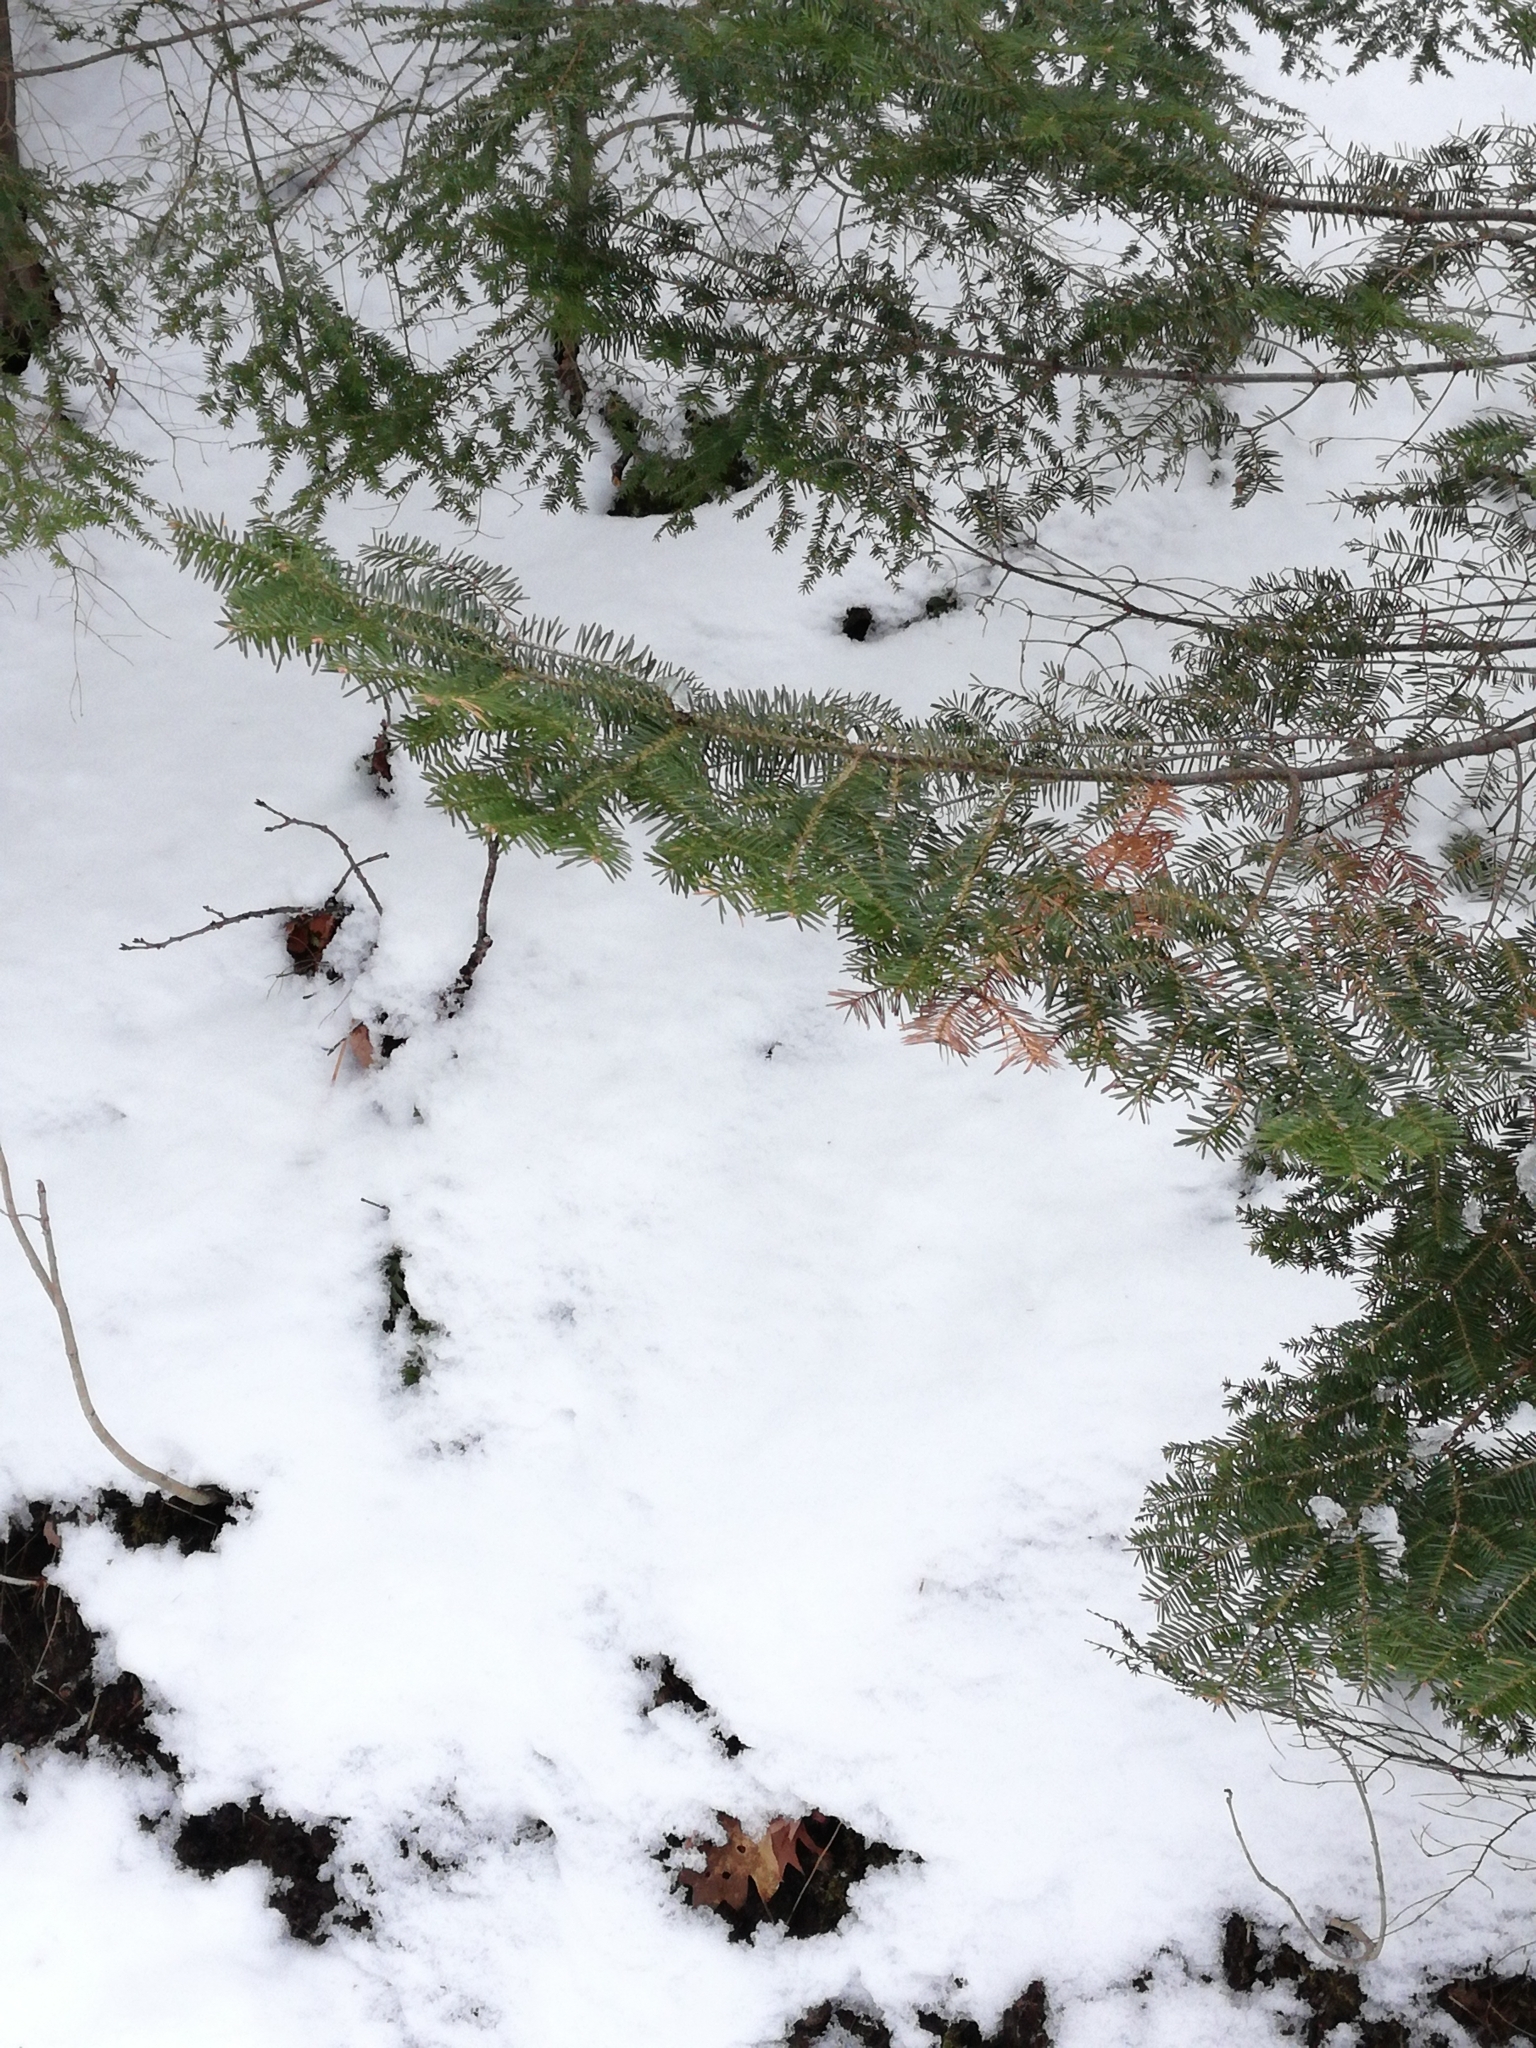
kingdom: Plantae
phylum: Tracheophyta
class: Pinopsida
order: Pinales
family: Pinaceae
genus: Abies
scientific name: Abies balsamea
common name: Balsam fir
